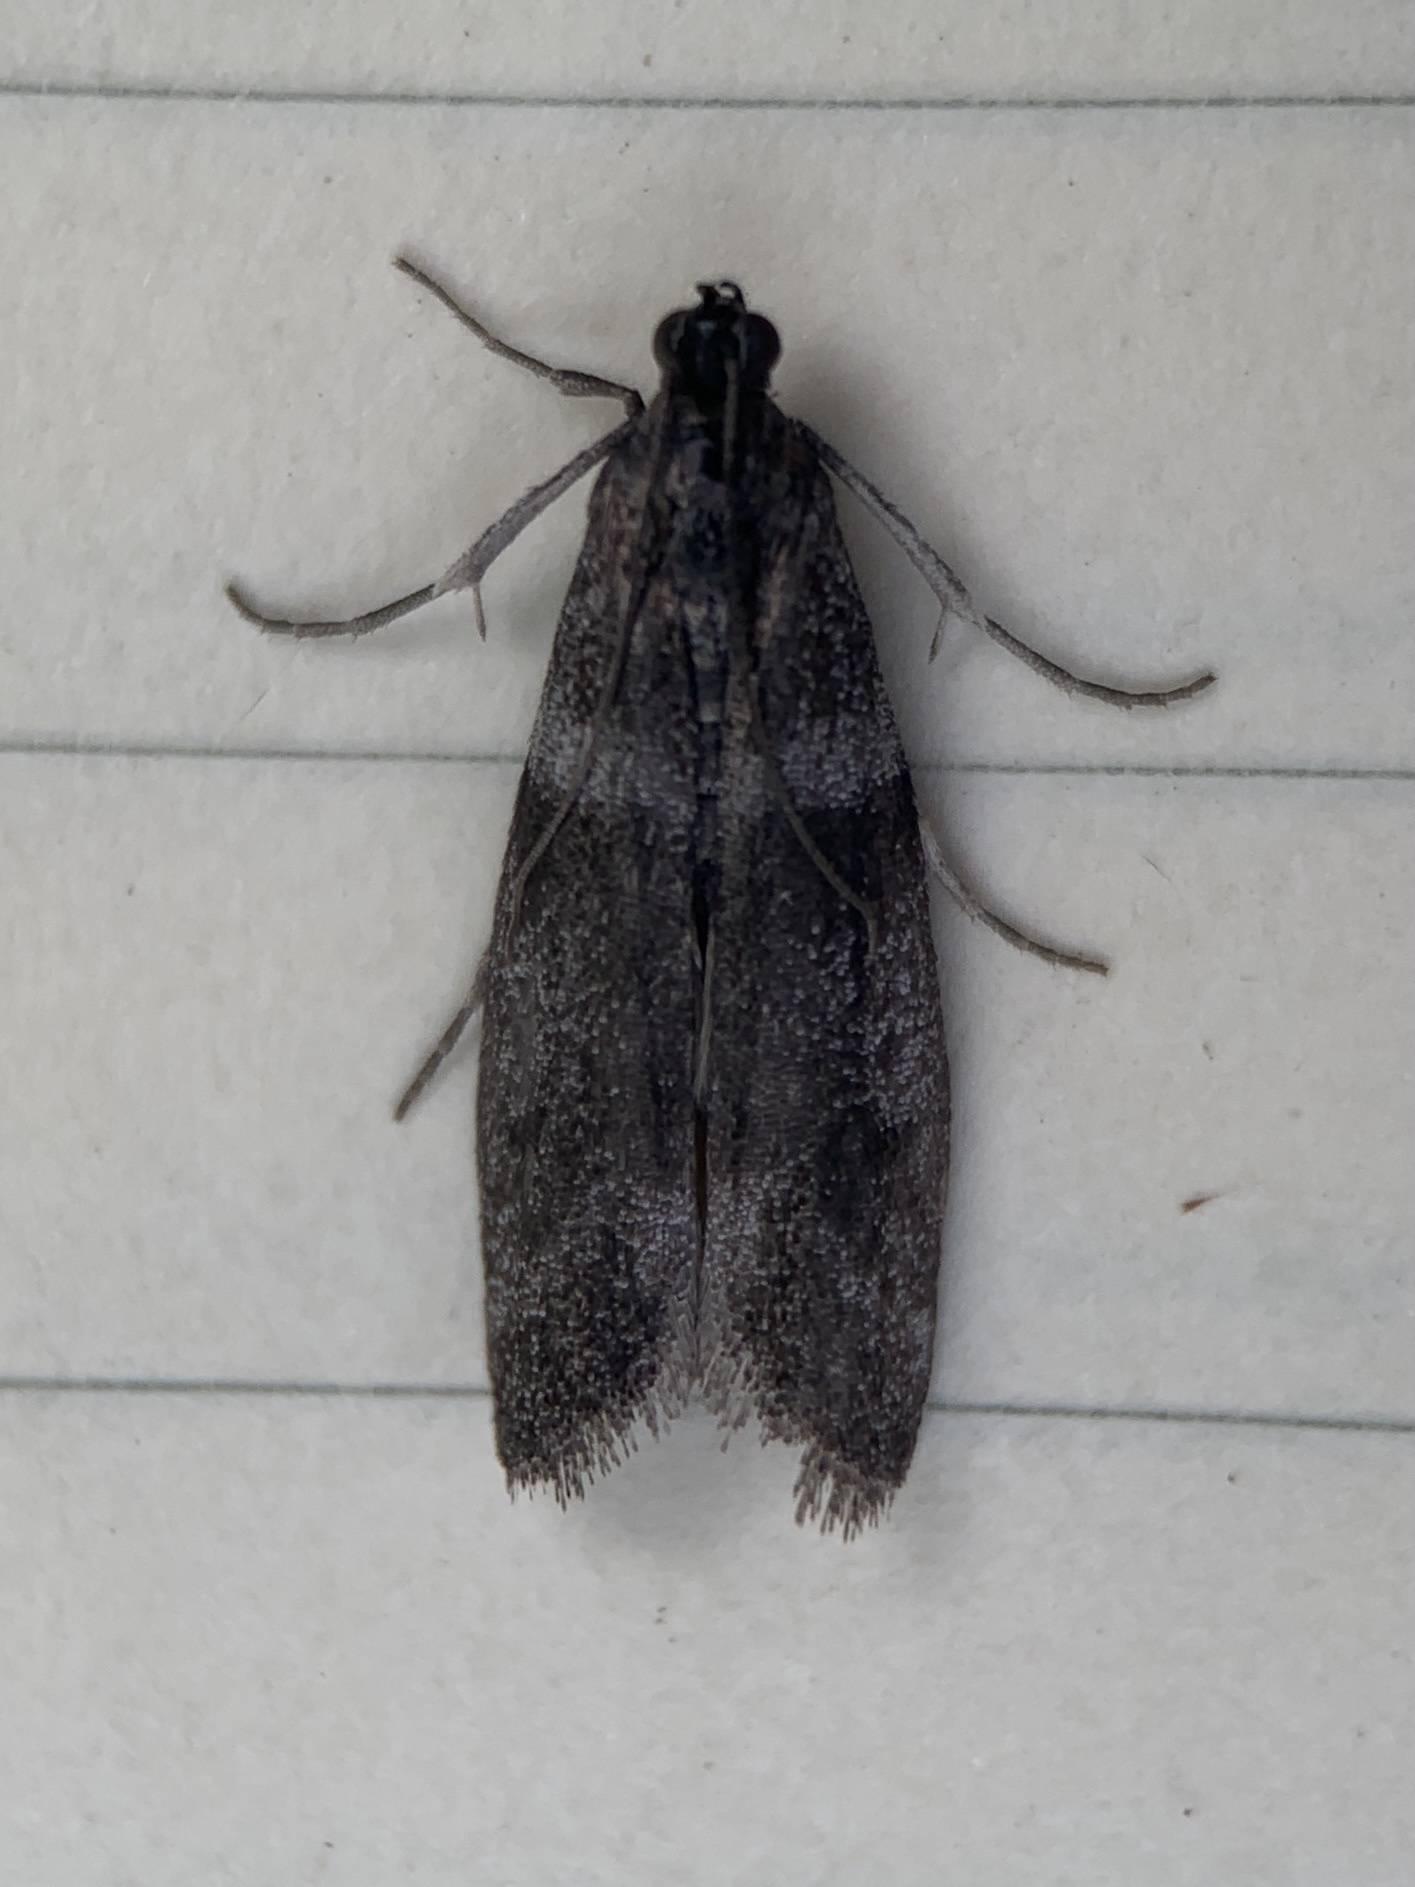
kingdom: Animalia
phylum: Arthropoda
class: Insecta
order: Lepidoptera
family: Pyralidae
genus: Myelopsis
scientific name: Myelopsis subtetricella
